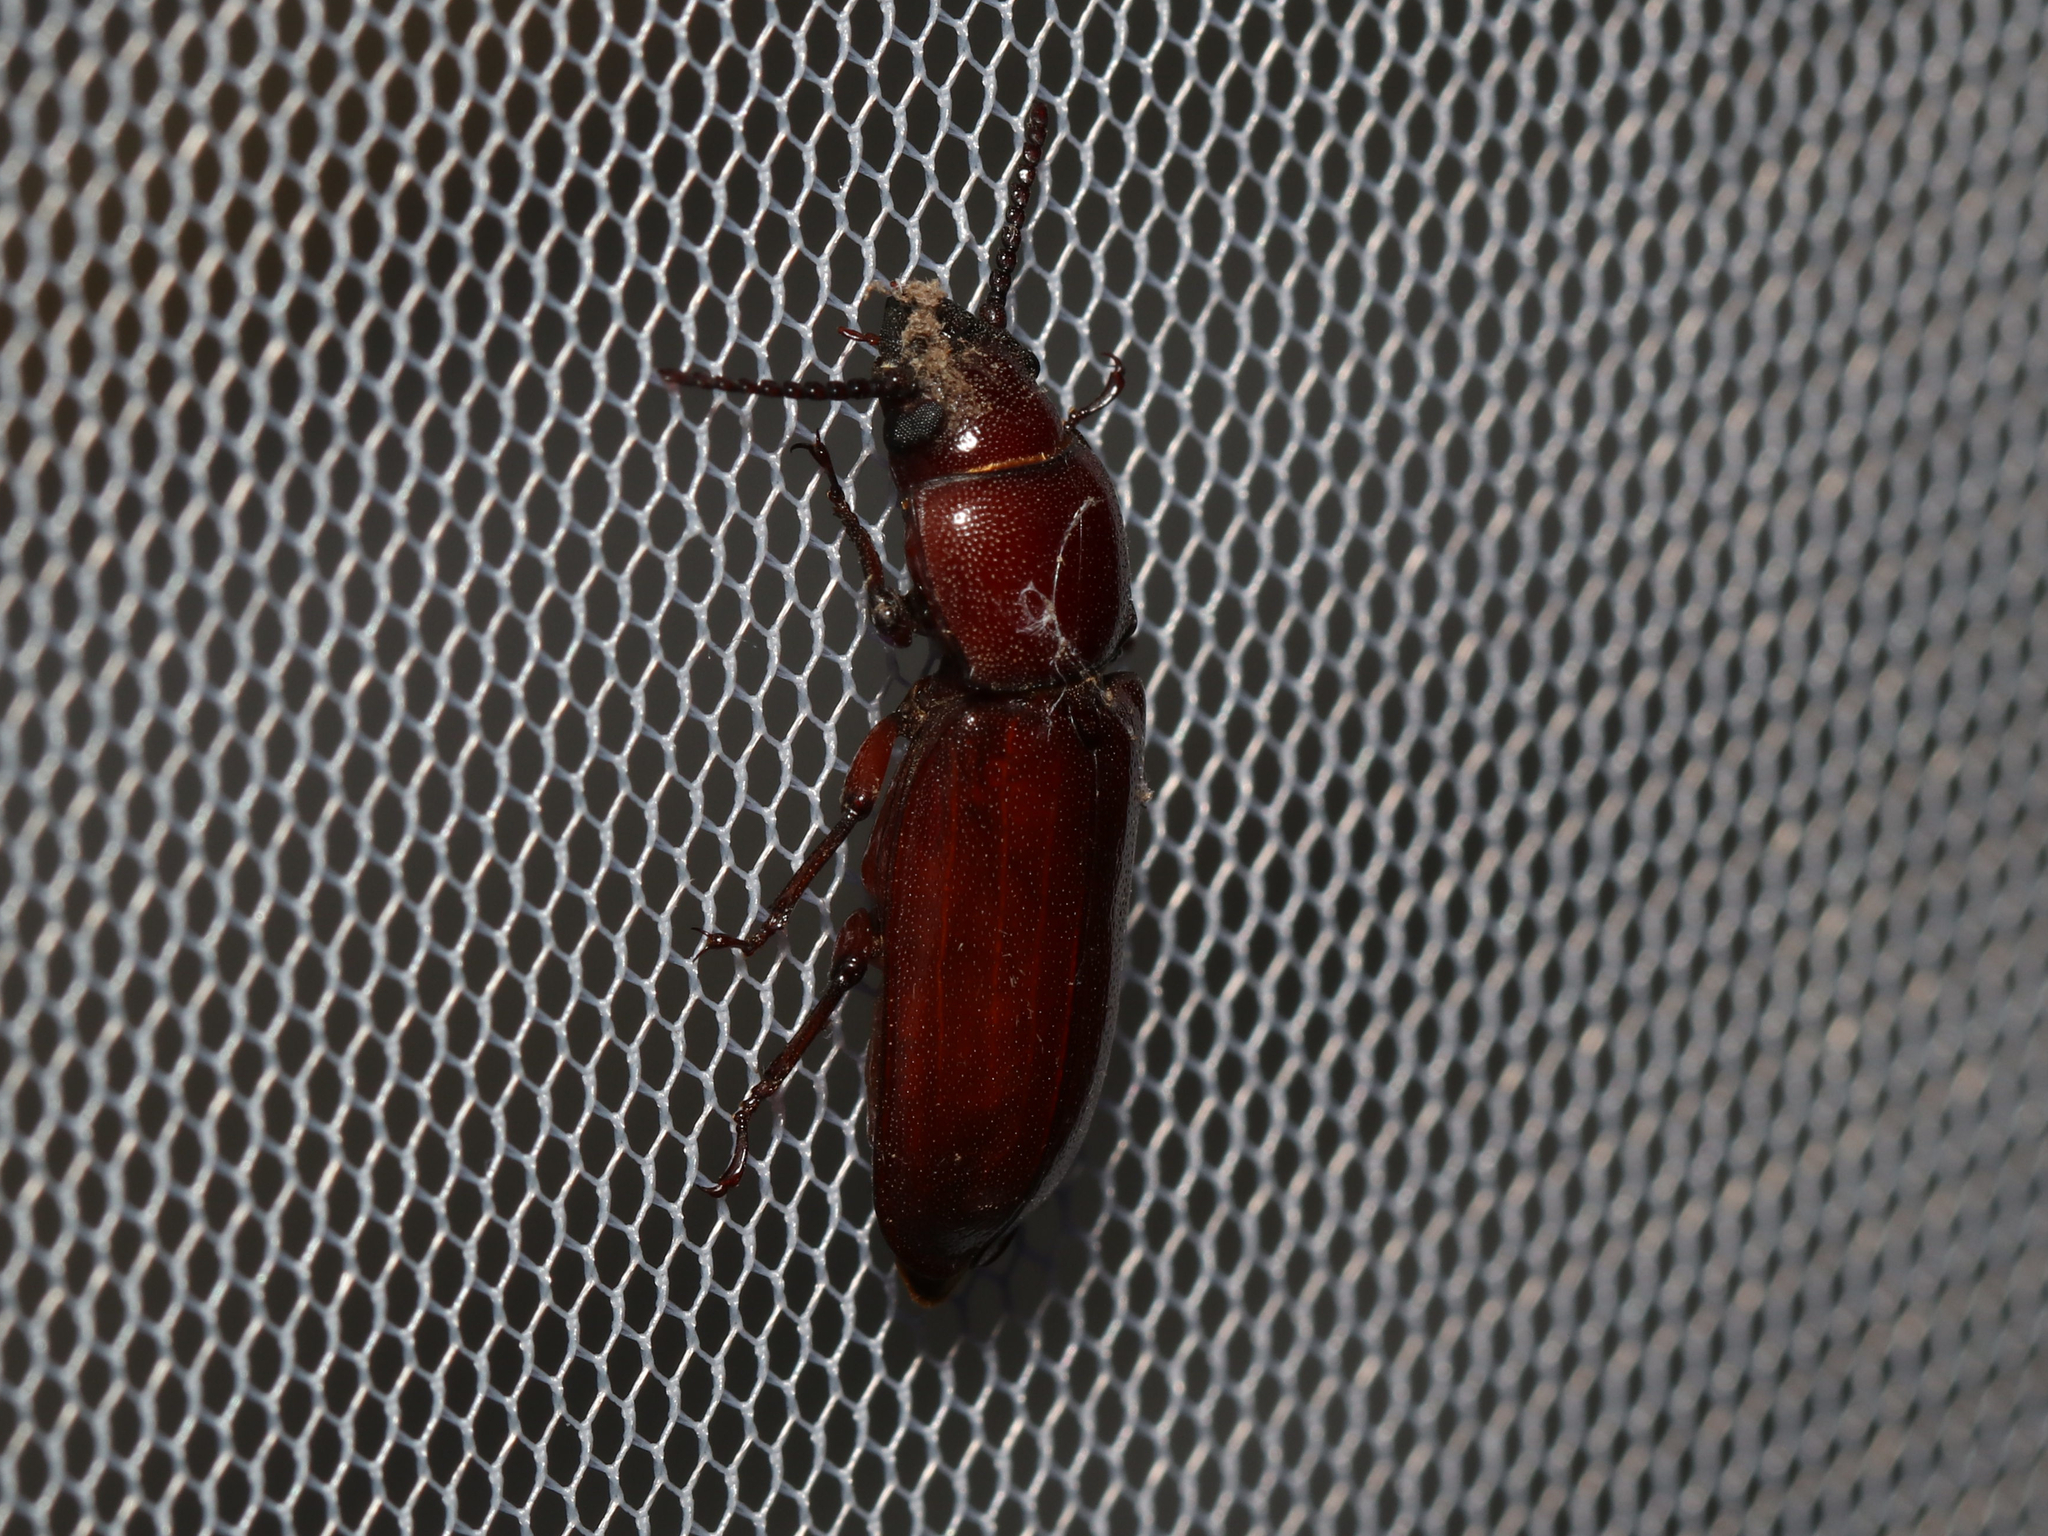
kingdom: Animalia
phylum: Arthropoda
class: Insecta
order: Coleoptera
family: Cerambycidae
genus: Neandra
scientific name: Neandra brunnea
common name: Pole borer
